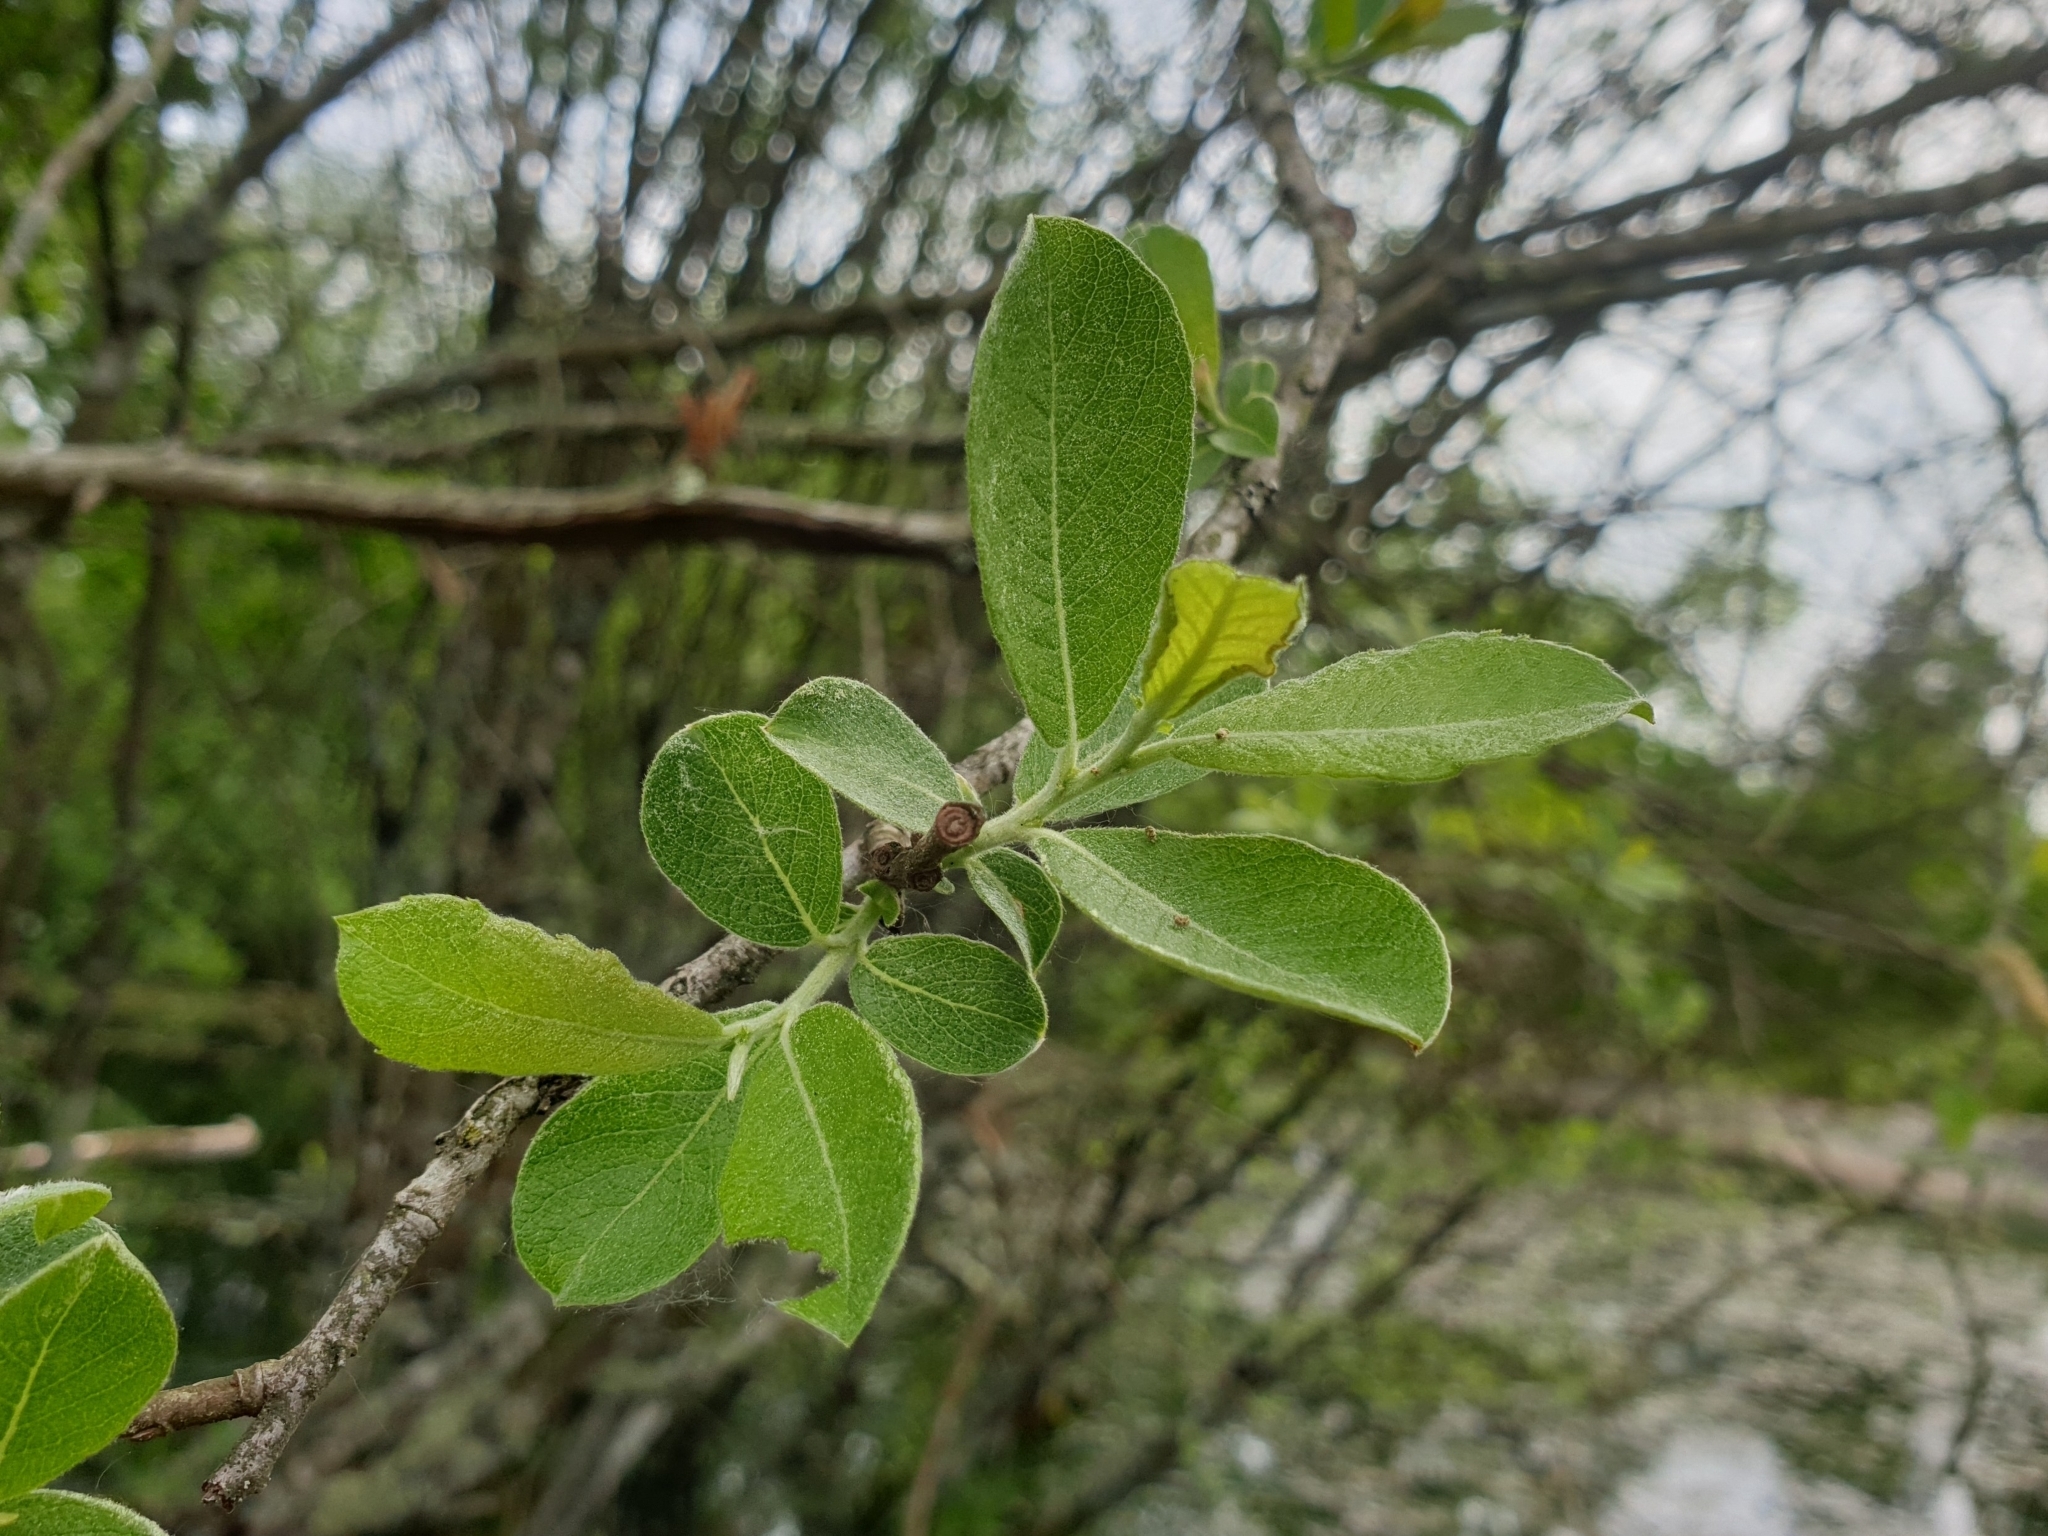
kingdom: Plantae
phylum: Tracheophyta
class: Magnoliopsida
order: Malpighiales
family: Salicaceae
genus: Salix
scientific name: Salix cinerea
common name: Common sallow
